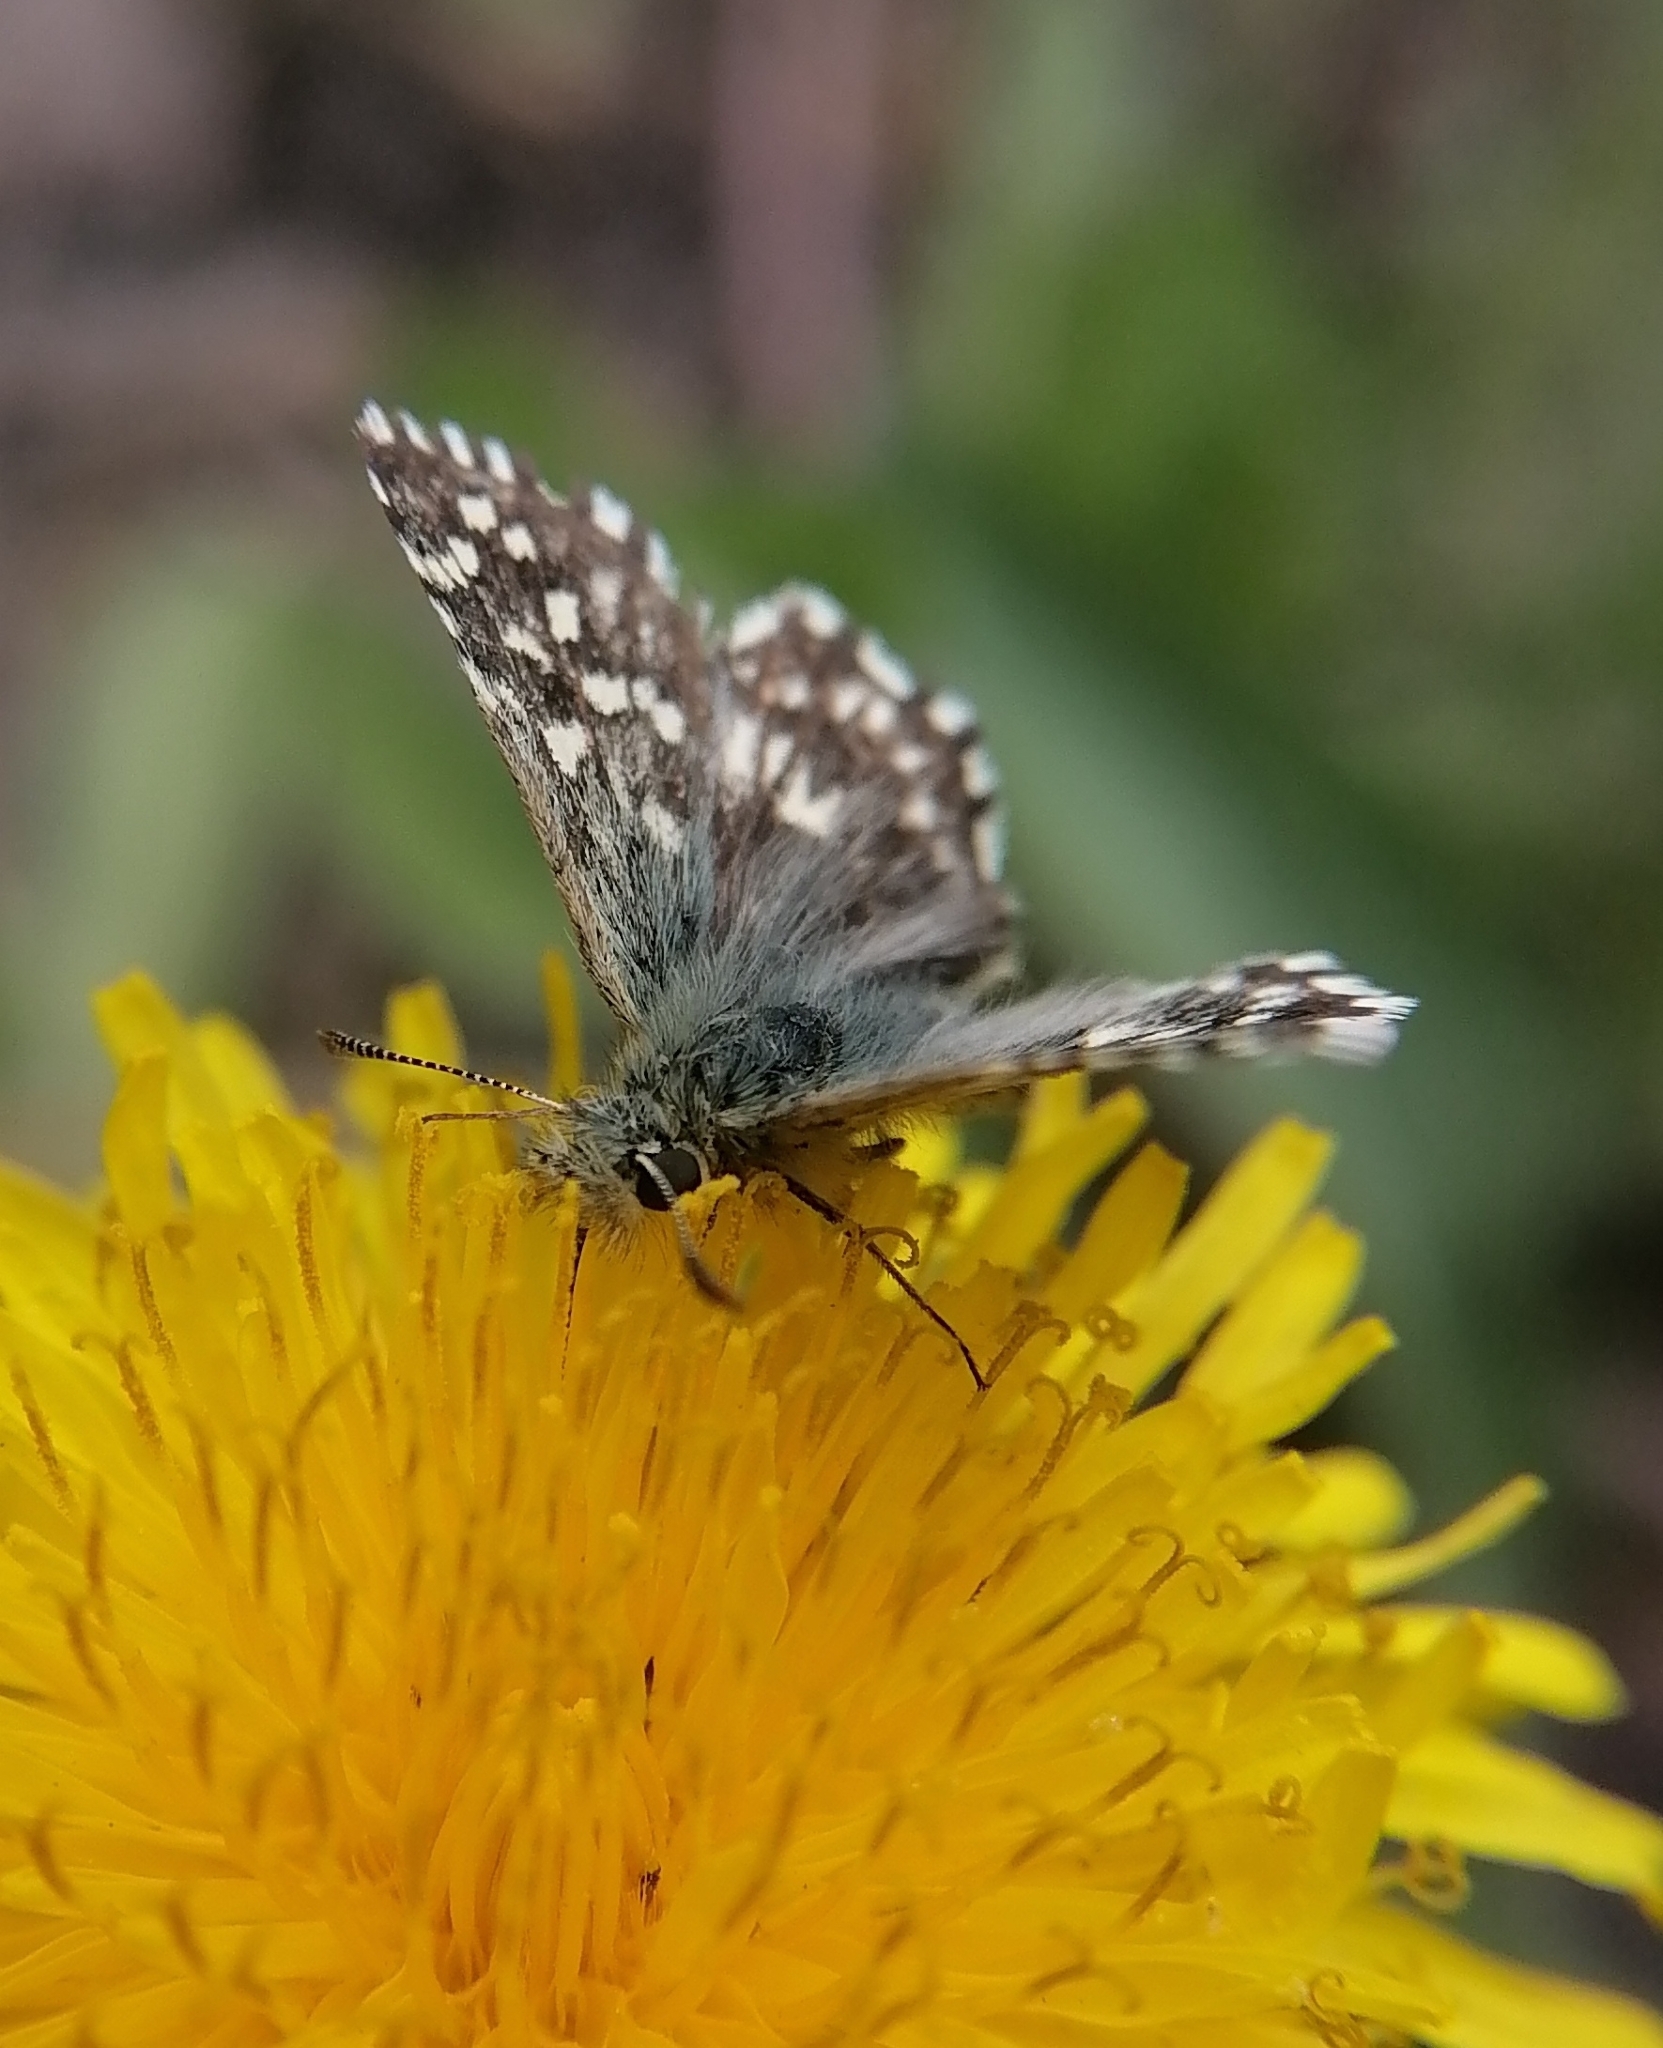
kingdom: Animalia
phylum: Arthropoda
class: Insecta
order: Lepidoptera
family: Hesperiidae
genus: Pyrgus
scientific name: Pyrgus malvae
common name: Grizzled skipper
